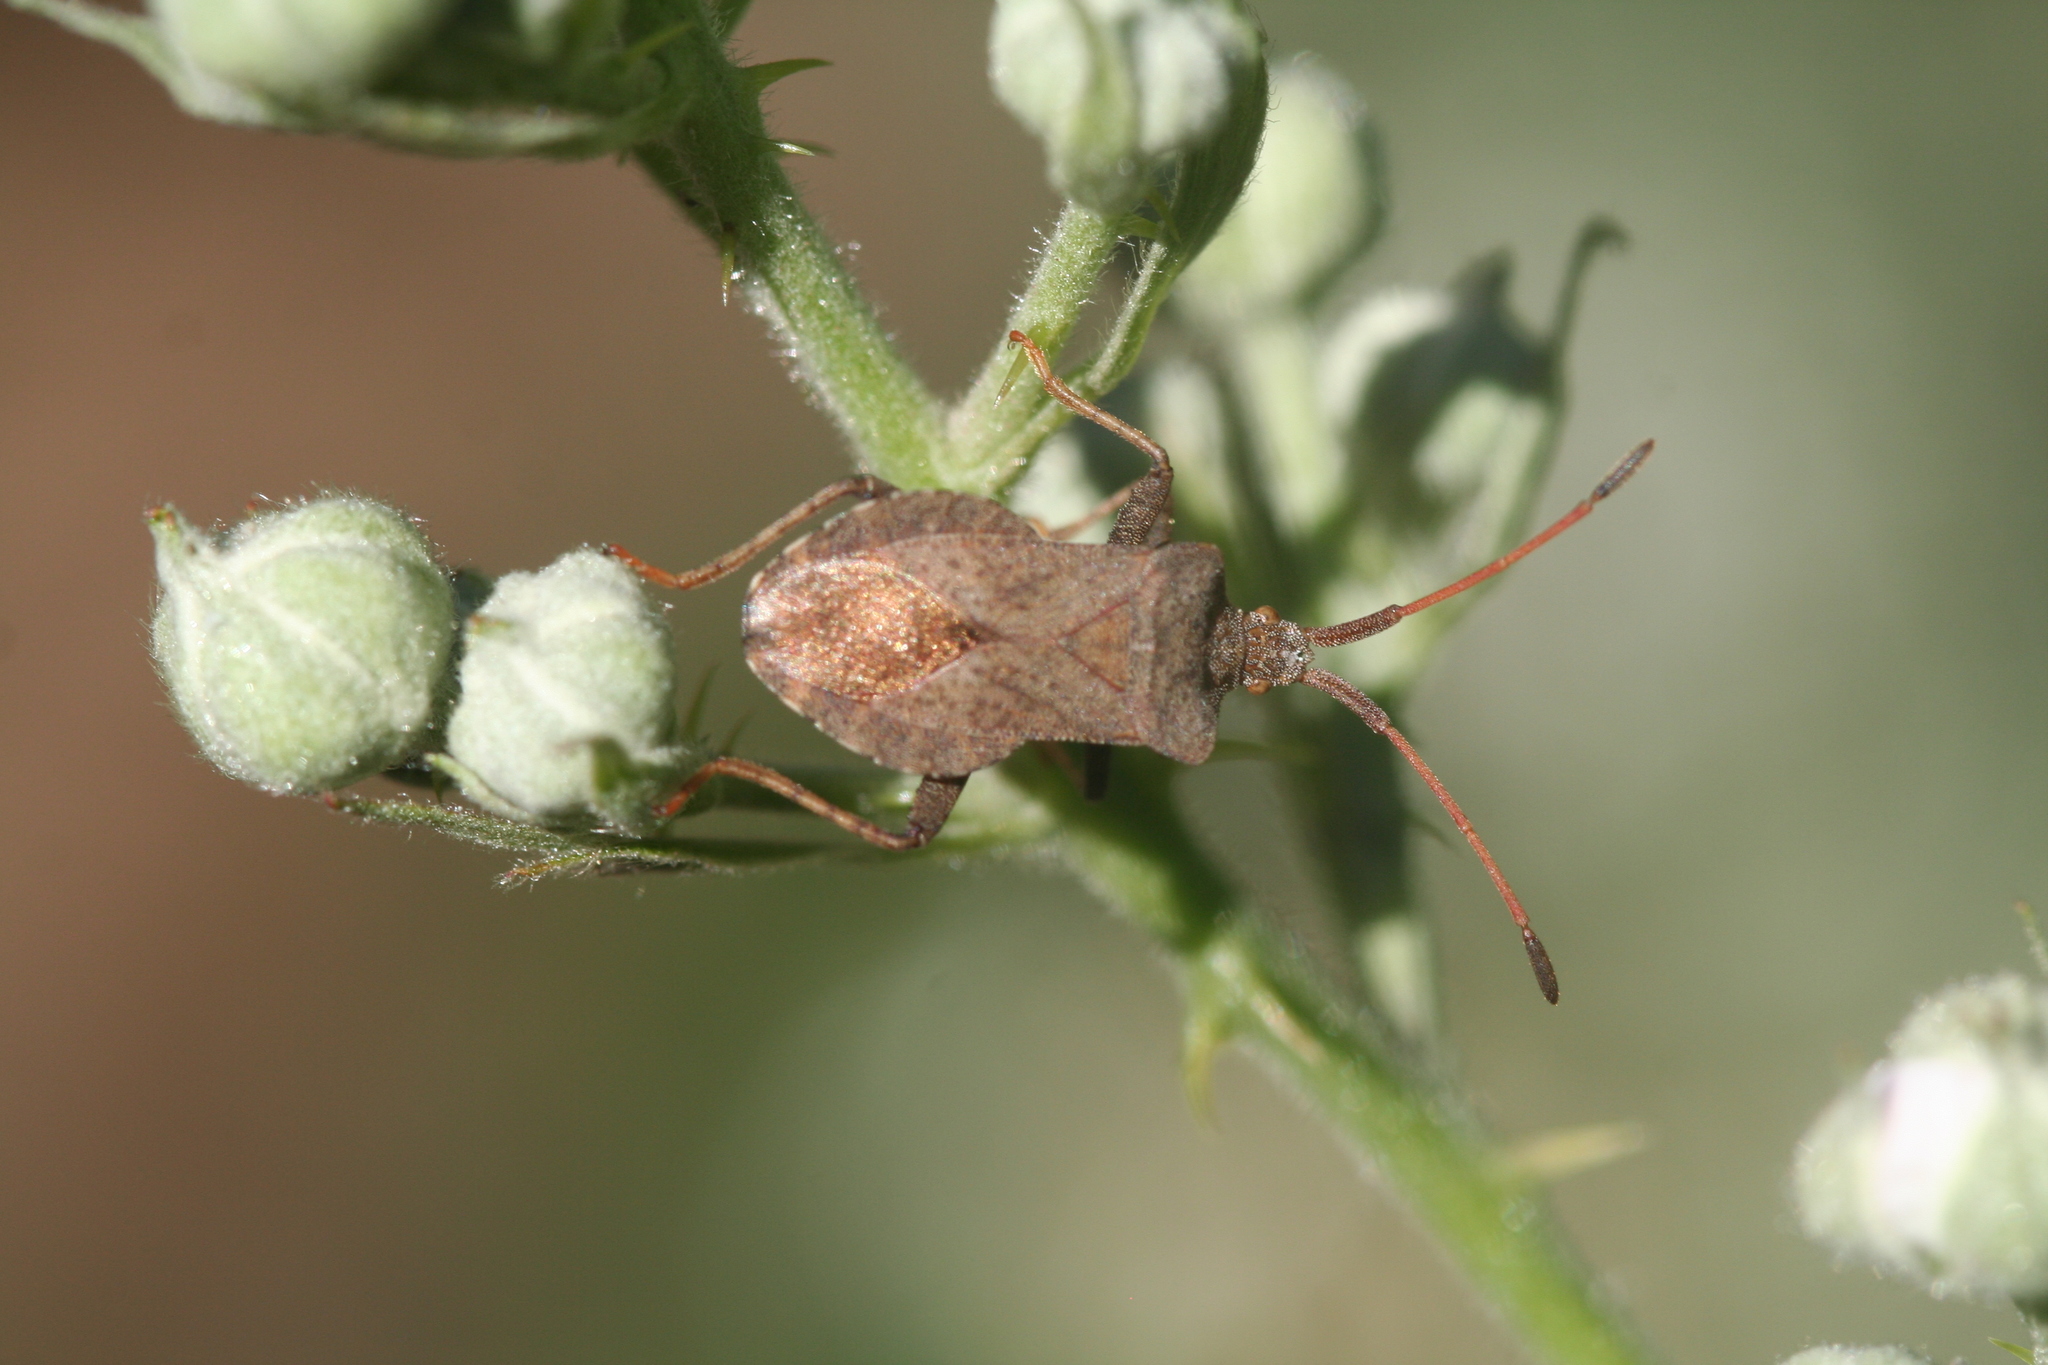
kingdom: Animalia
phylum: Arthropoda
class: Insecta
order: Hemiptera
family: Coreidae
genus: Coreus
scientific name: Coreus marginatus
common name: Dock bug
